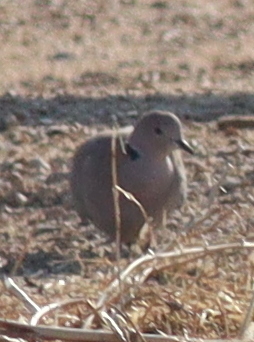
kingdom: Animalia
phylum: Chordata
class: Aves
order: Columbiformes
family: Columbidae
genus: Streptopelia
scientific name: Streptopelia decaocto
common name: Eurasian collared dove
